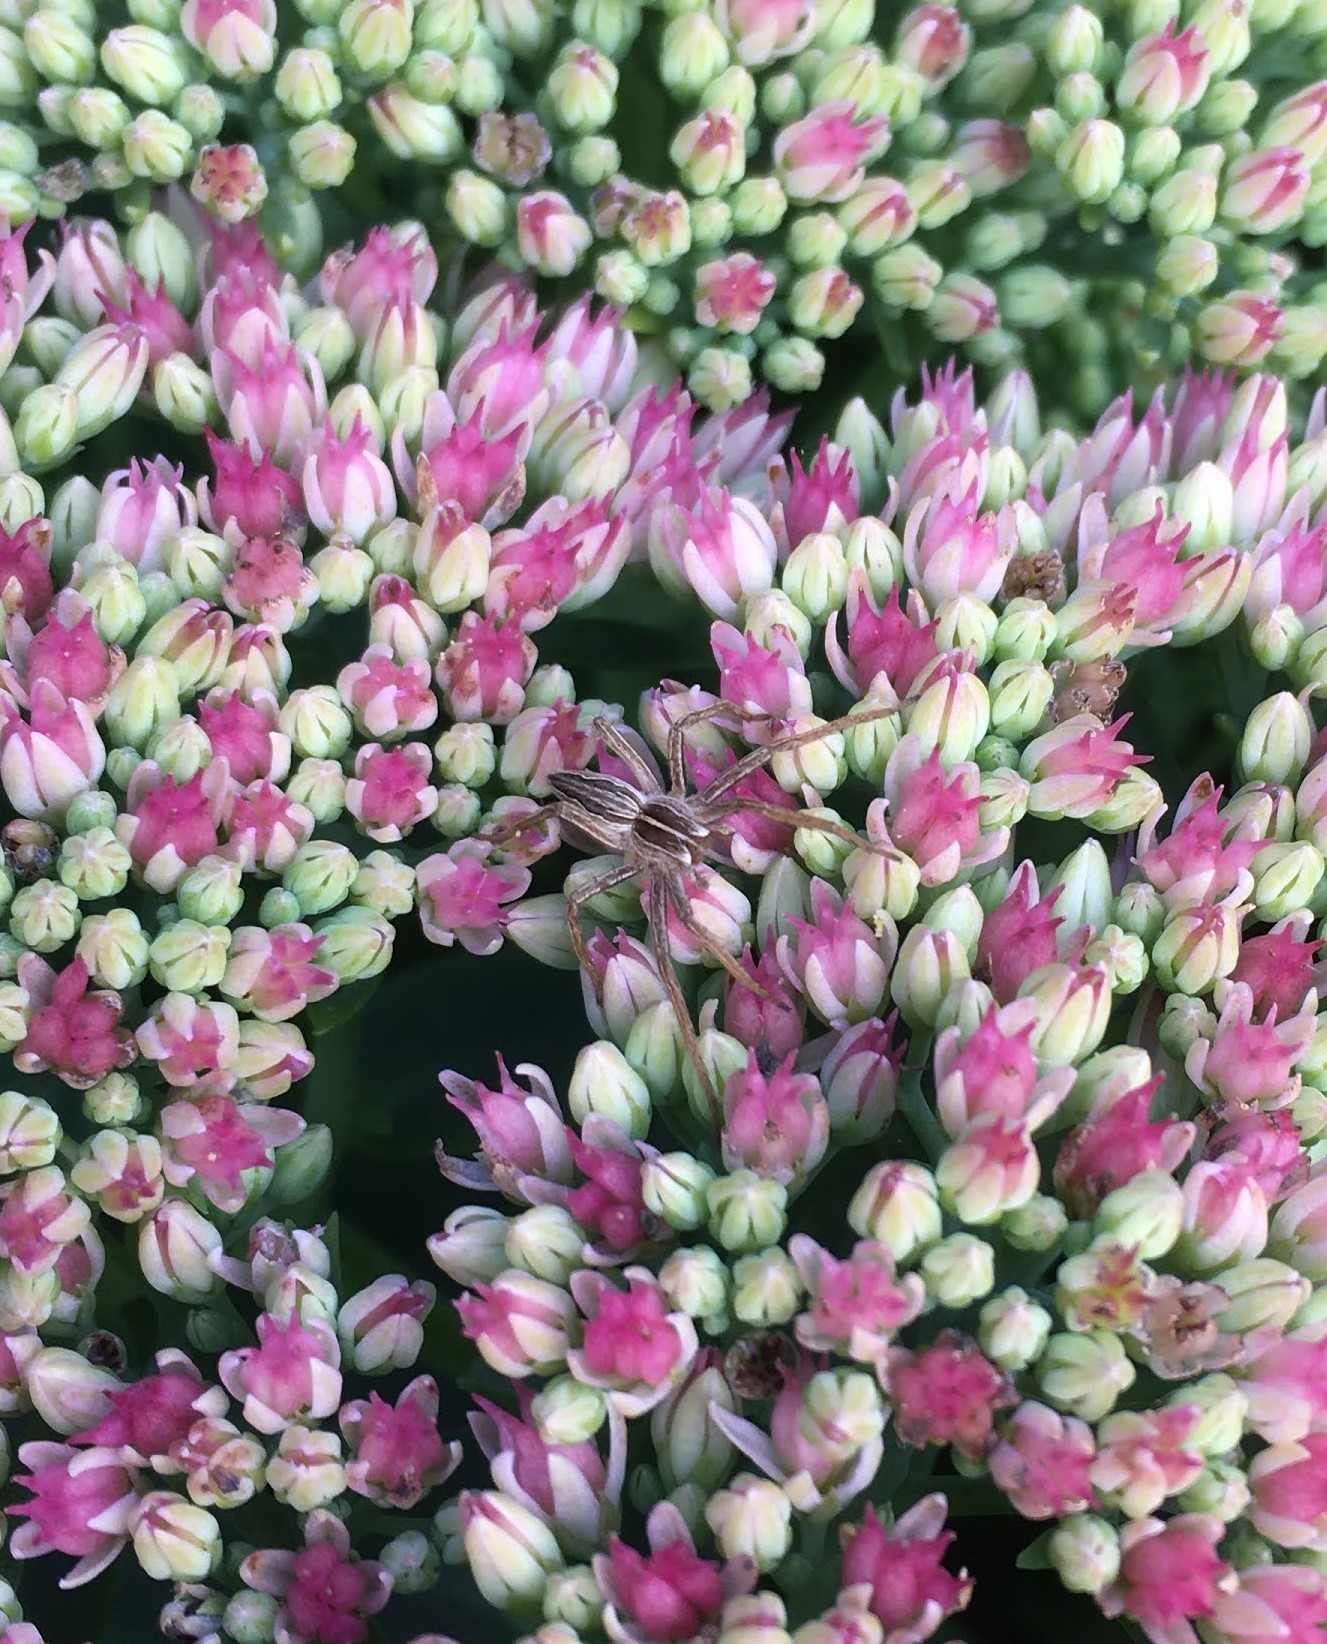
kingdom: Animalia
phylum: Arthropoda
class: Arachnida
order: Araneae
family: Pisauridae
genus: Pisaura
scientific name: Pisaura mirabilis
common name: Tent spider
